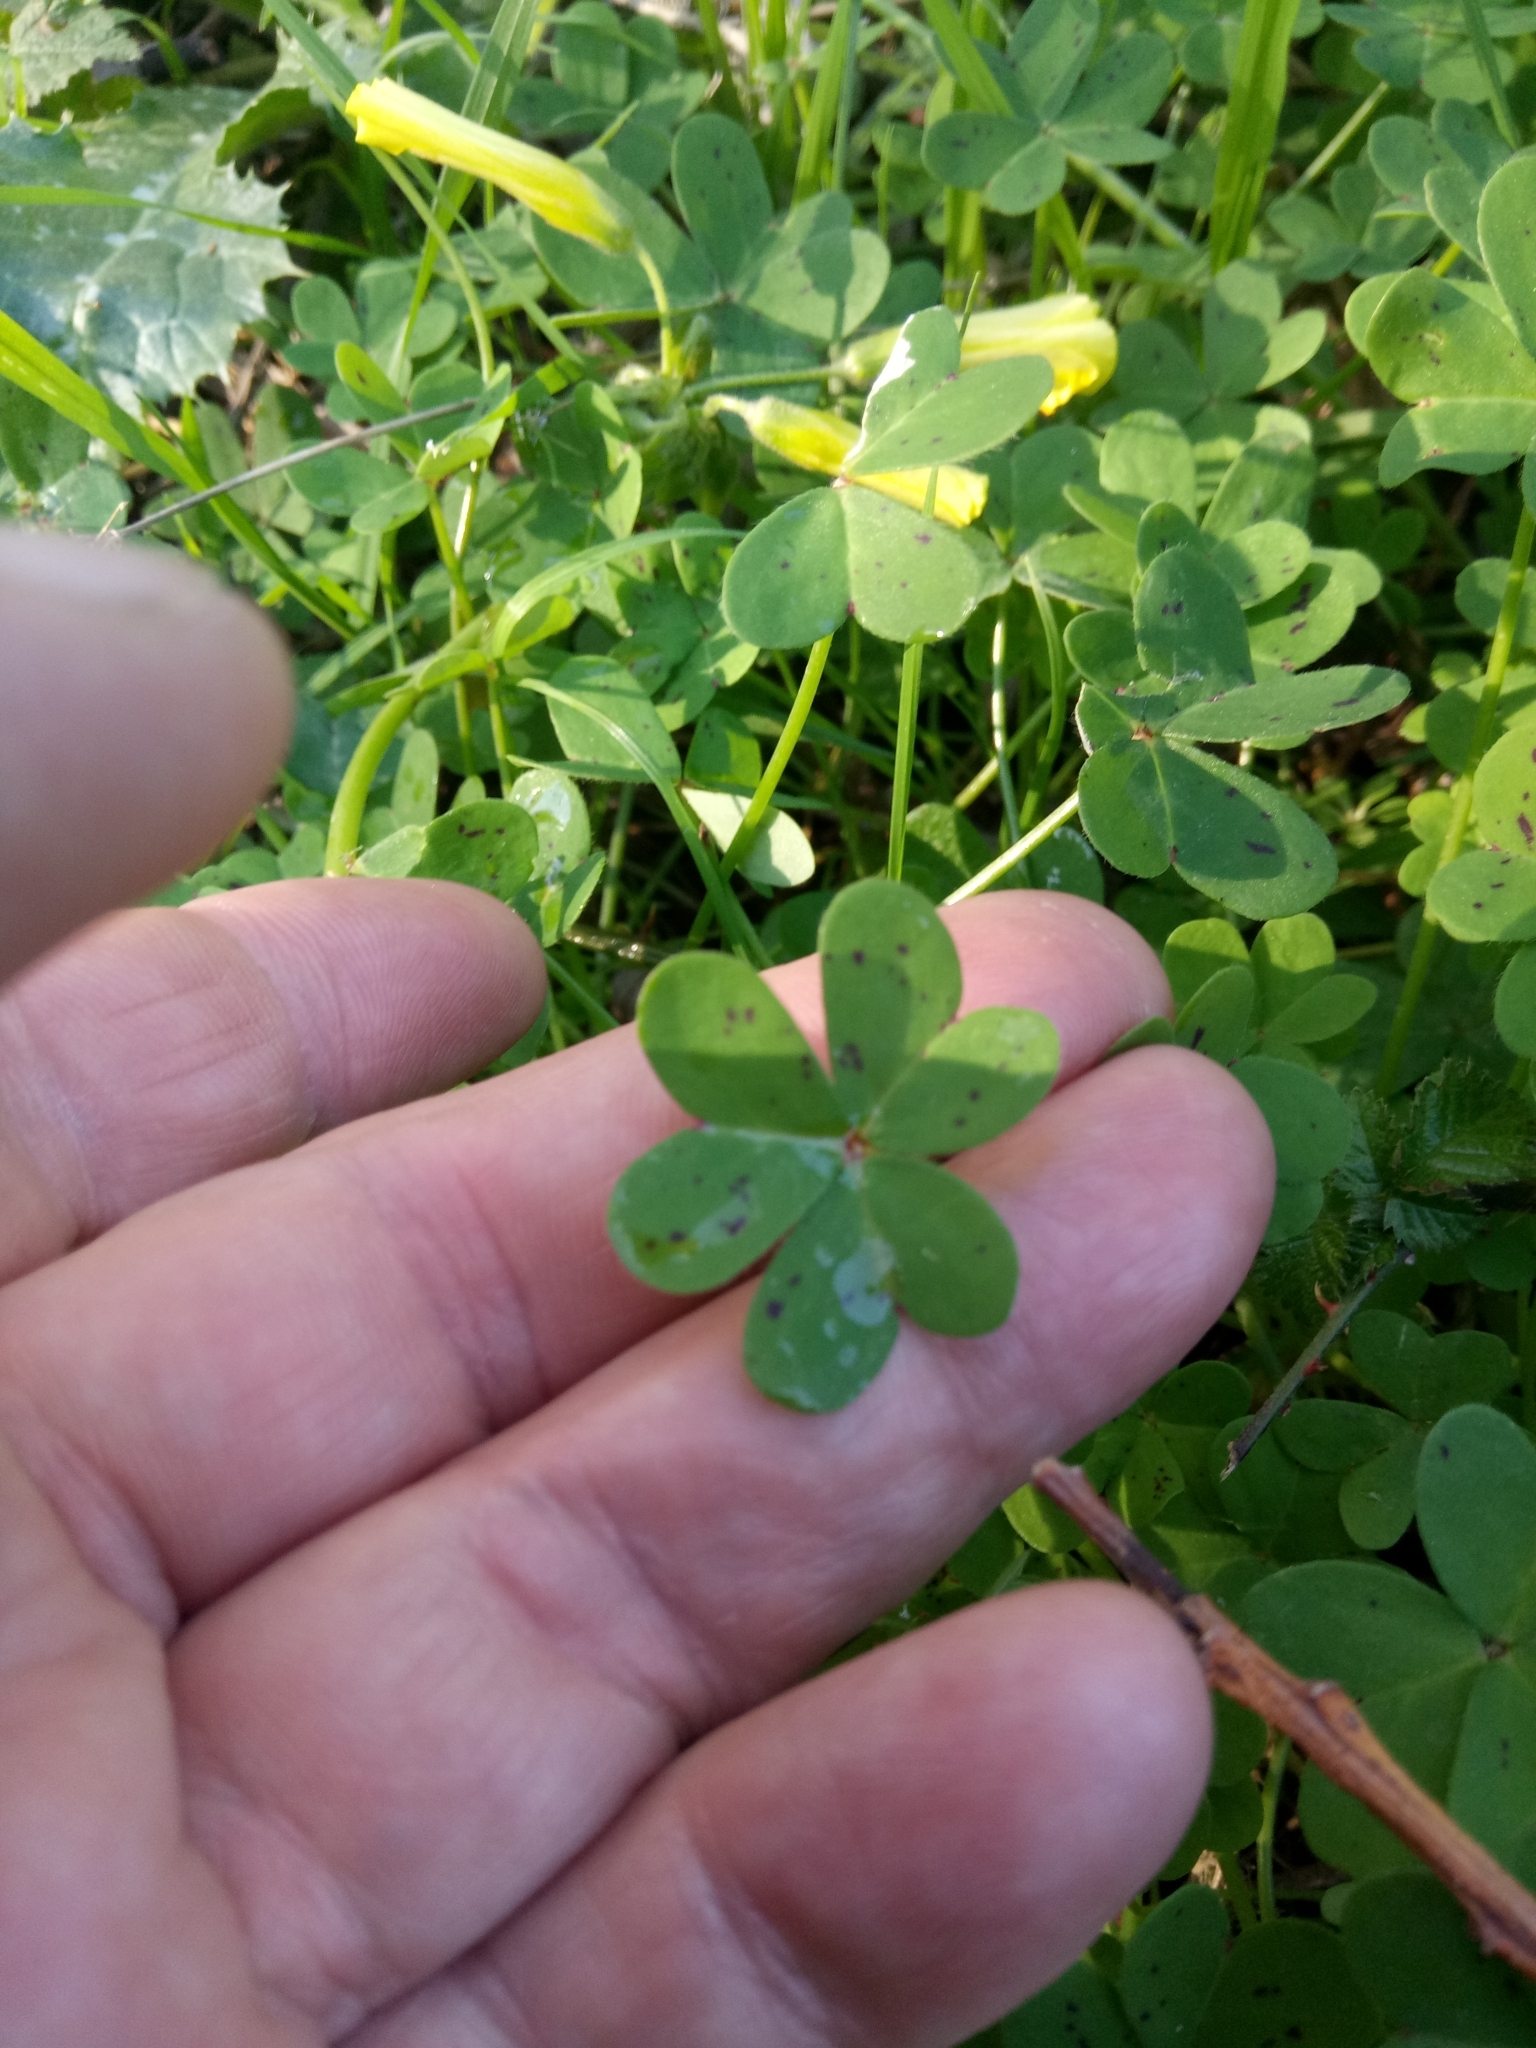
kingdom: Plantae
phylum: Tracheophyta
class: Magnoliopsida
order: Oxalidales
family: Oxalidaceae
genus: Oxalis
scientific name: Oxalis pes-caprae
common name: Bermuda-buttercup
